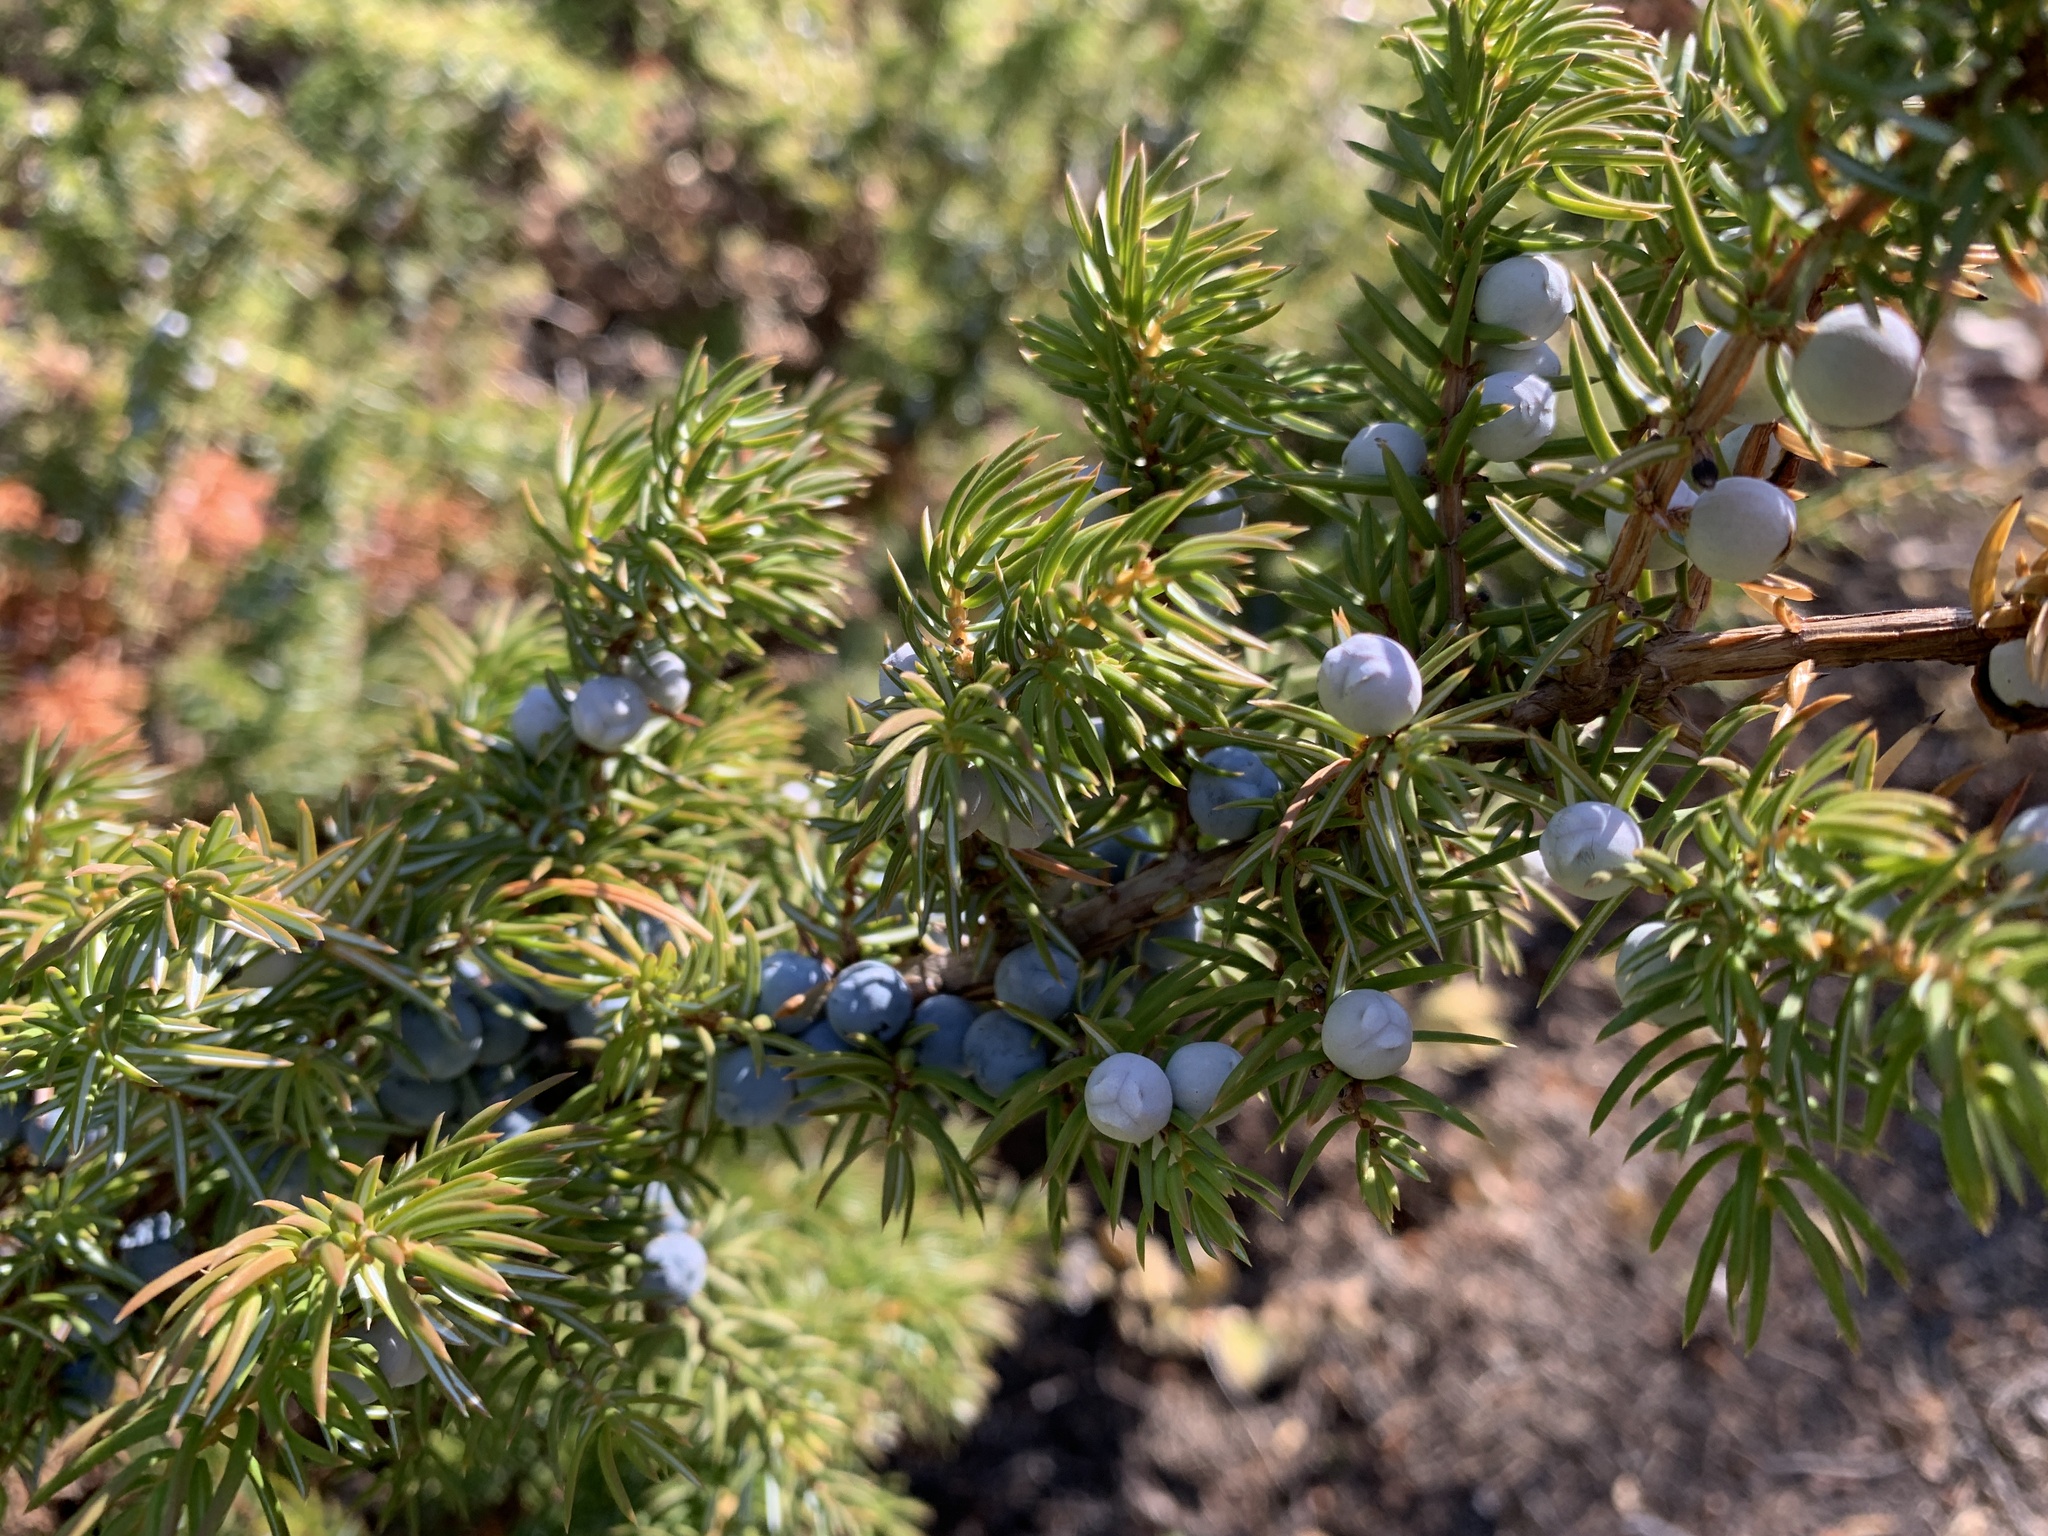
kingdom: Plantae
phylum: Tracheophyta
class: Pinopsida
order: Pinales
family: Cupressaceae
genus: Juniperus
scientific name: Juniperus communis
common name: Common juniper
